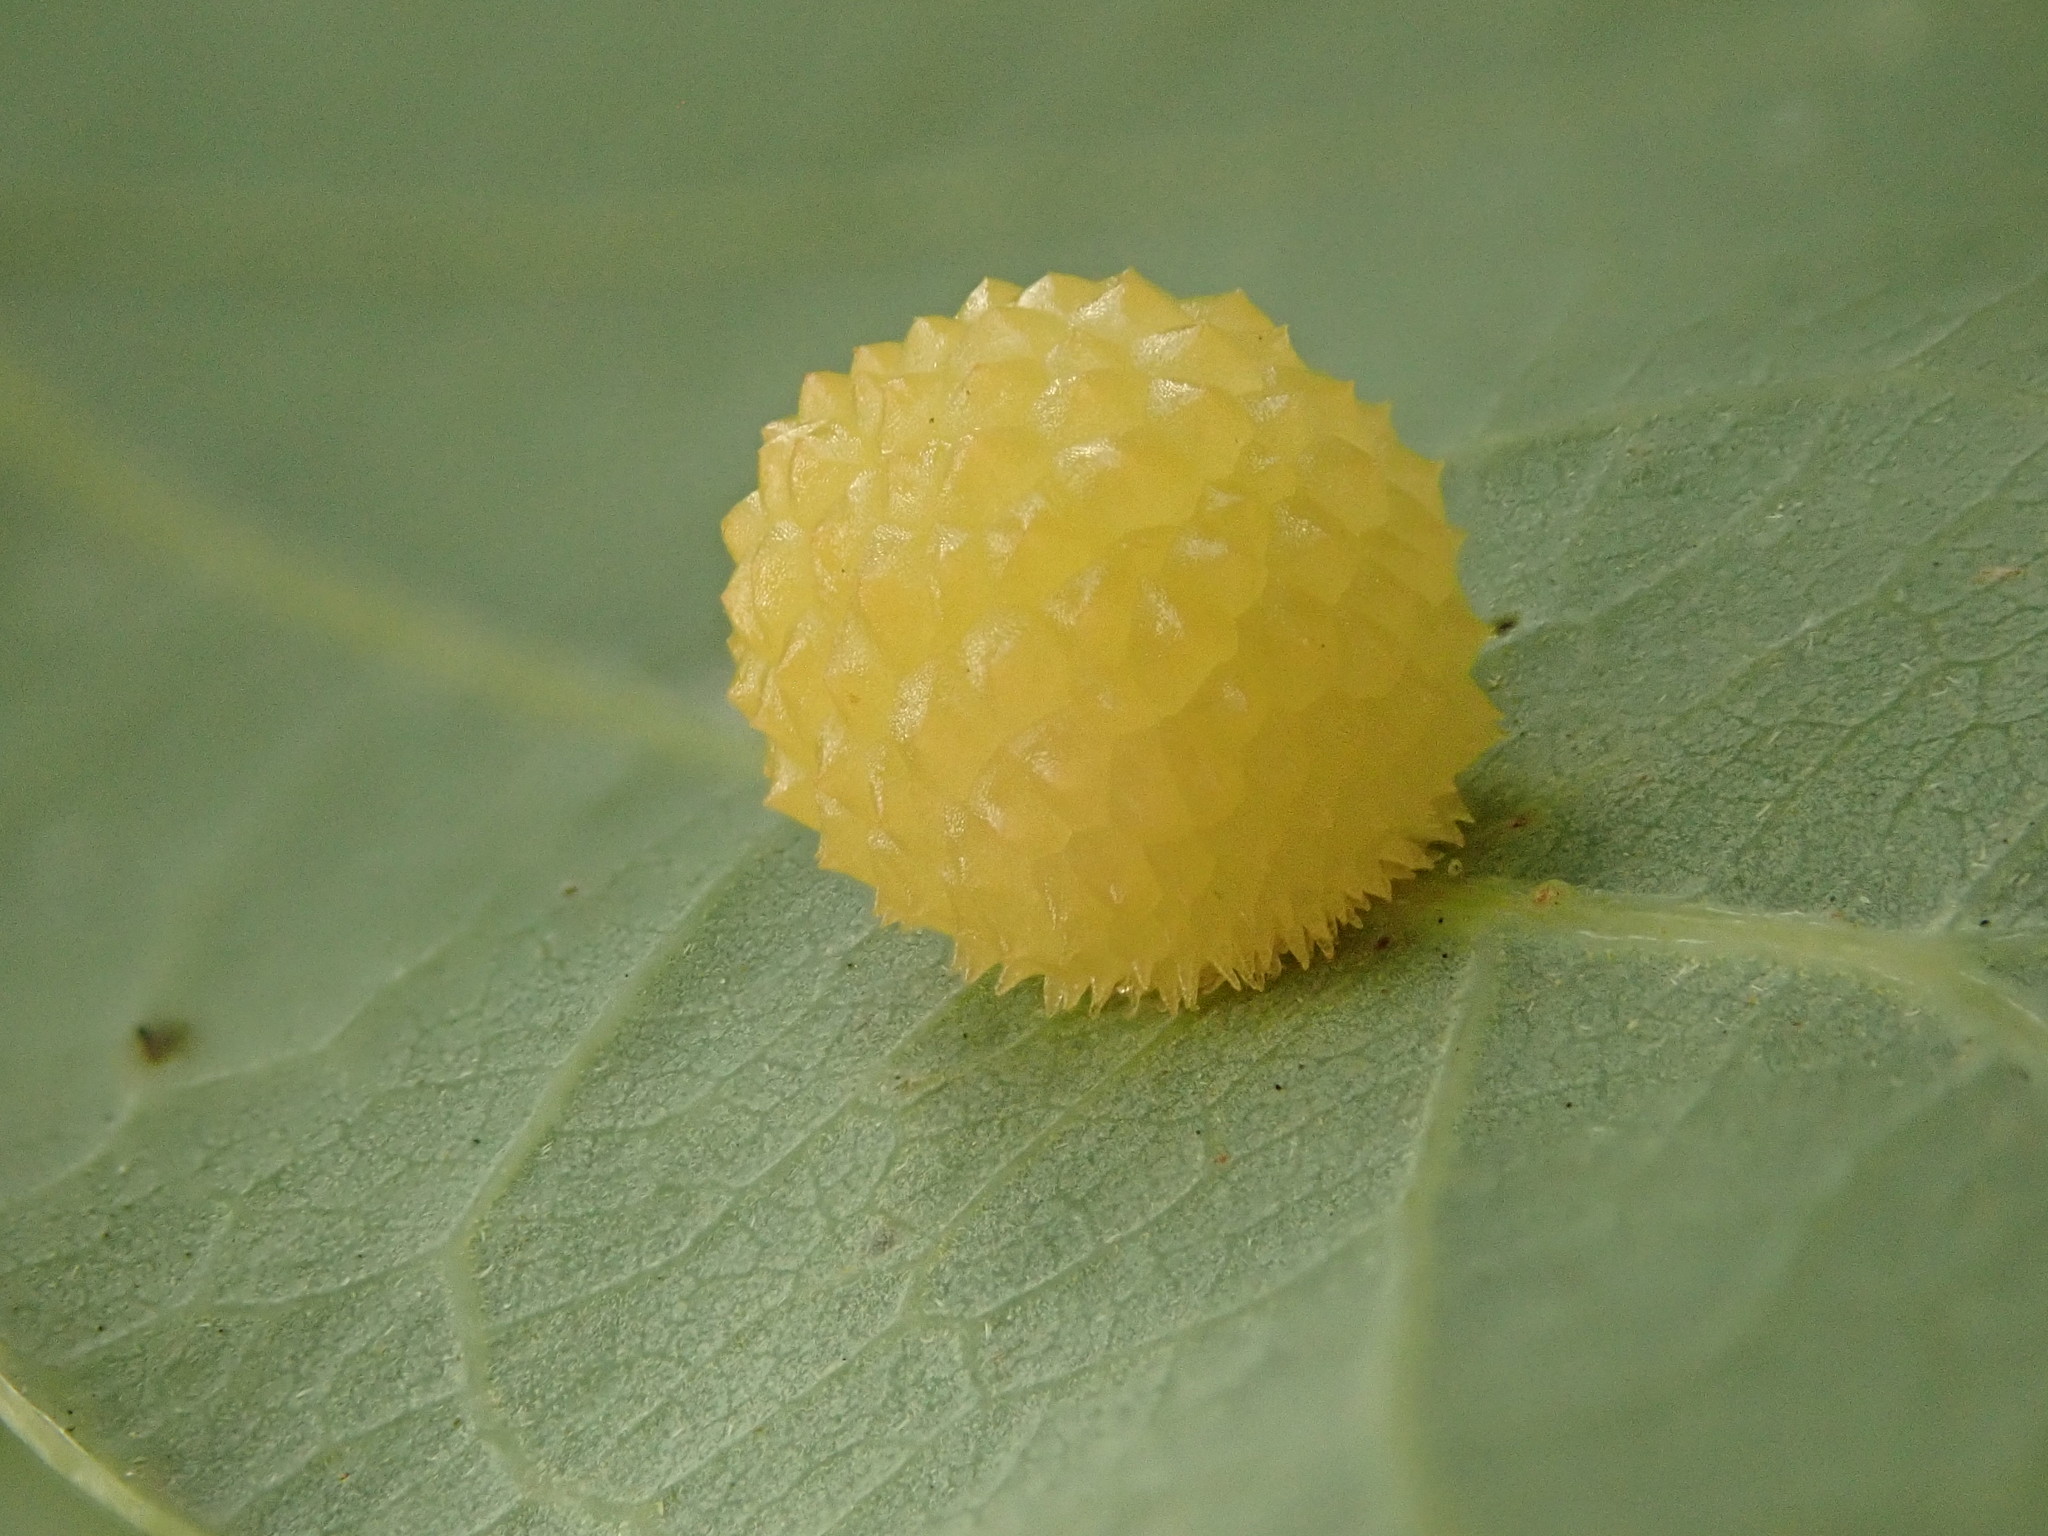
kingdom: Animalia
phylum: Arthropoda
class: Insecta
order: Hymenoptera
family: Cynipidae
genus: Acraspis
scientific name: Acraspis
